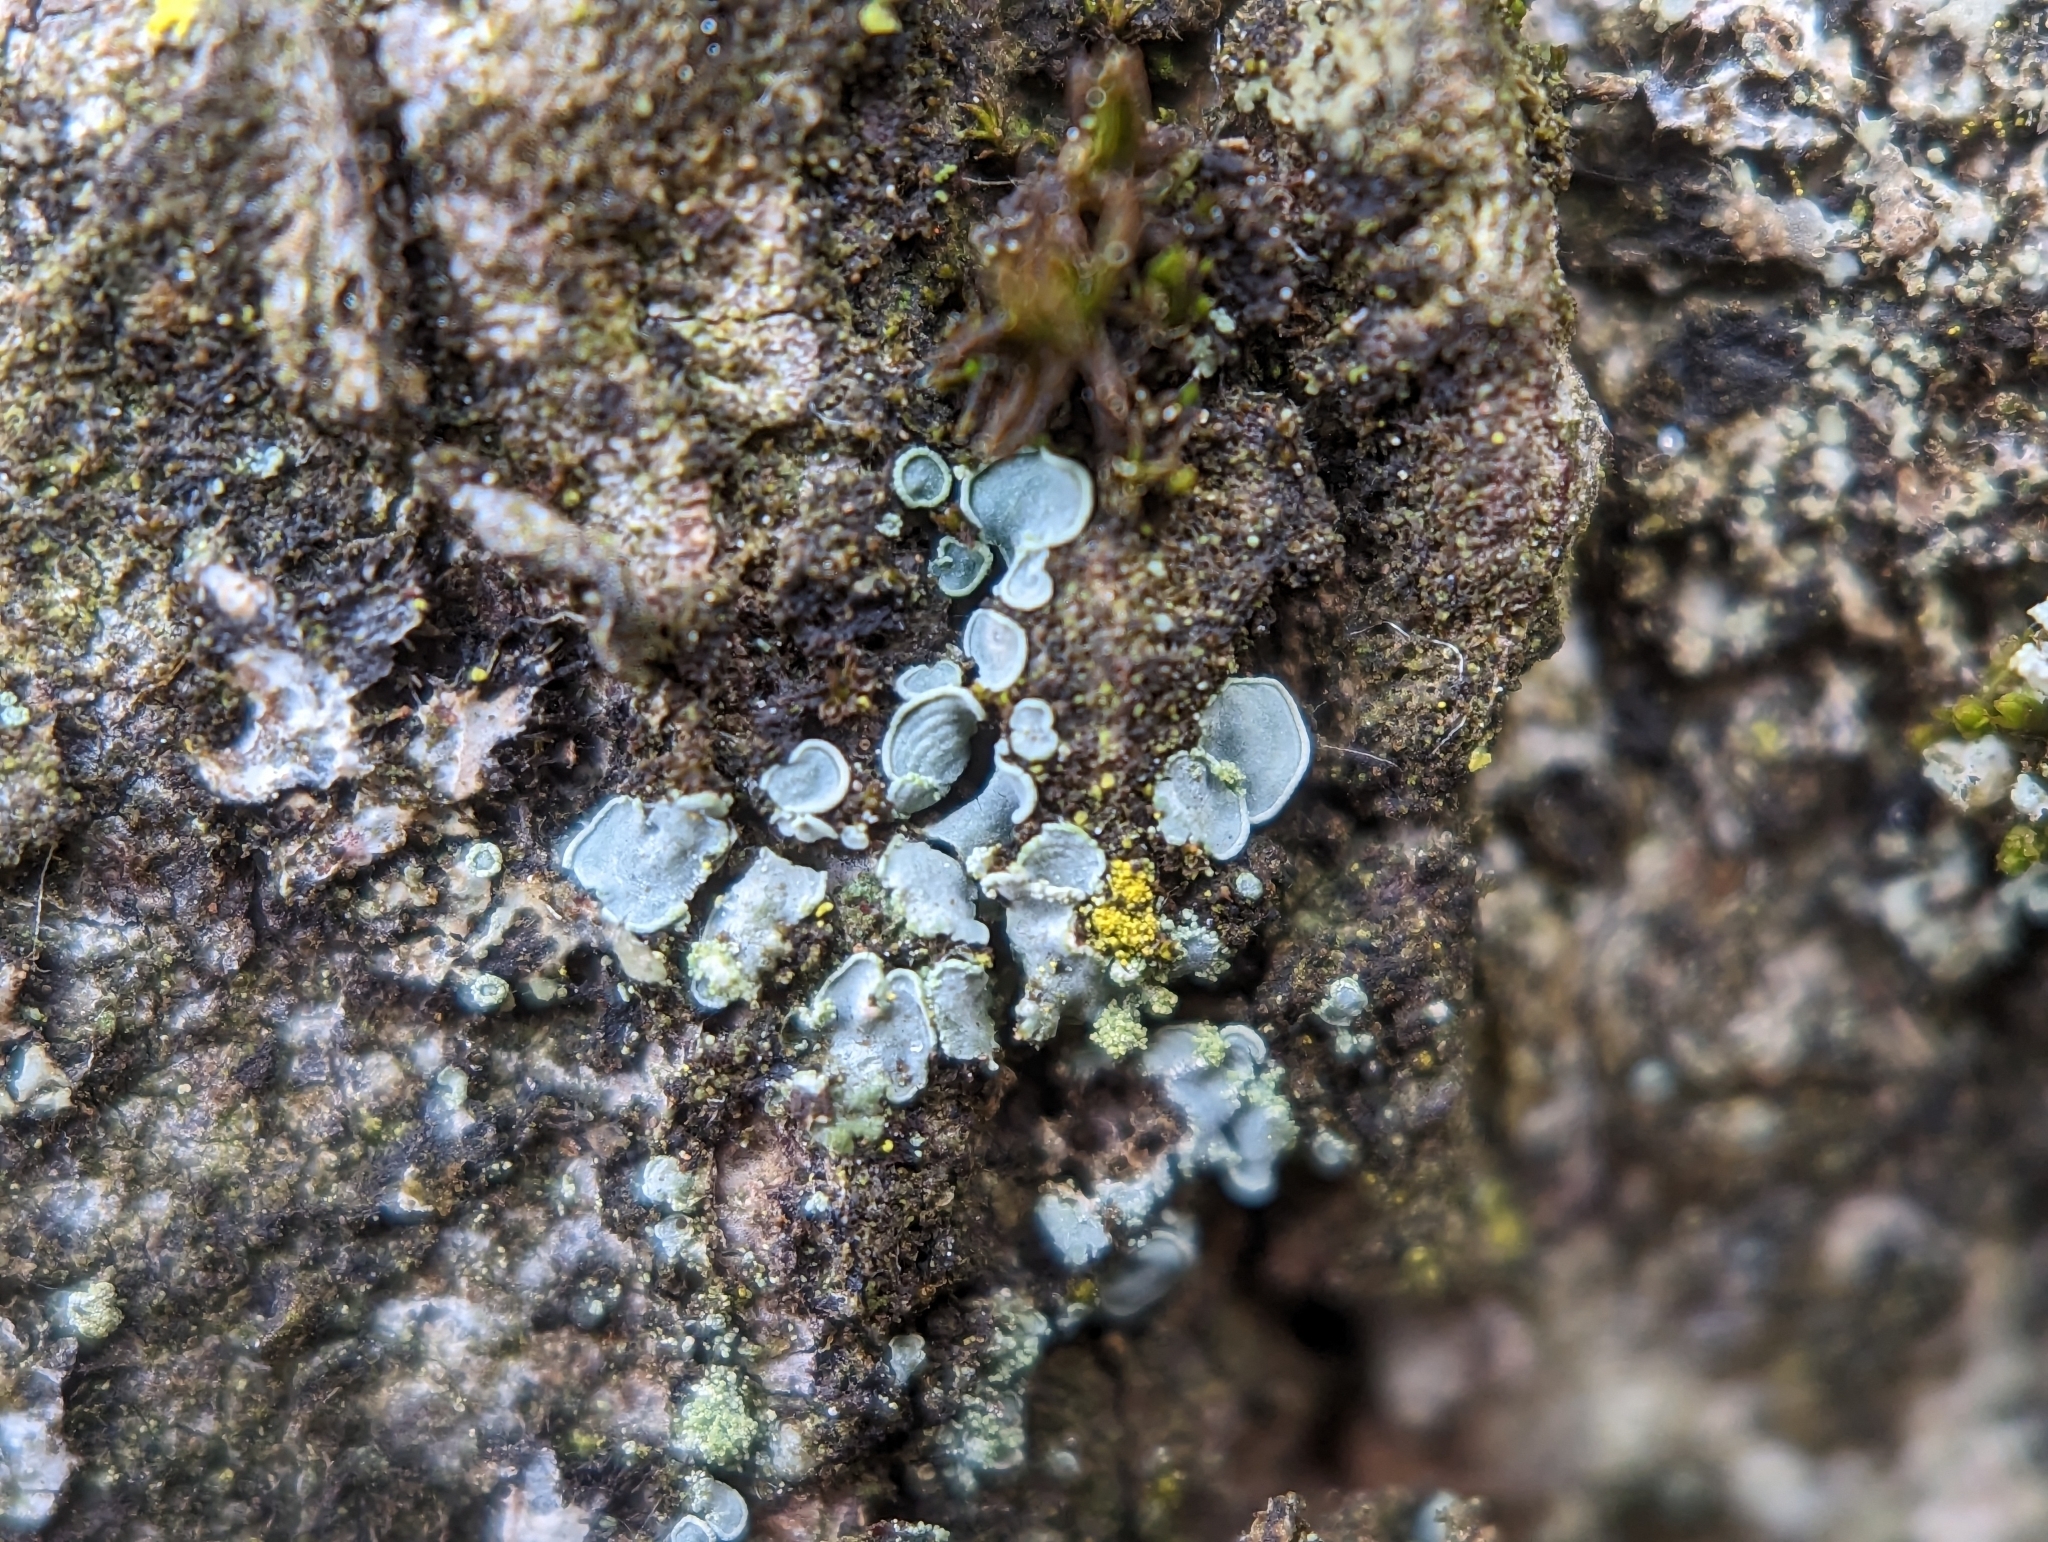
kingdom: Fungi
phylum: Ascomycota
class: Eurotiomycetes
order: Verrucariales
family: Verrucariaceae
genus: Normandina
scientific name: Normandina pulchella
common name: Elf ears lichen
